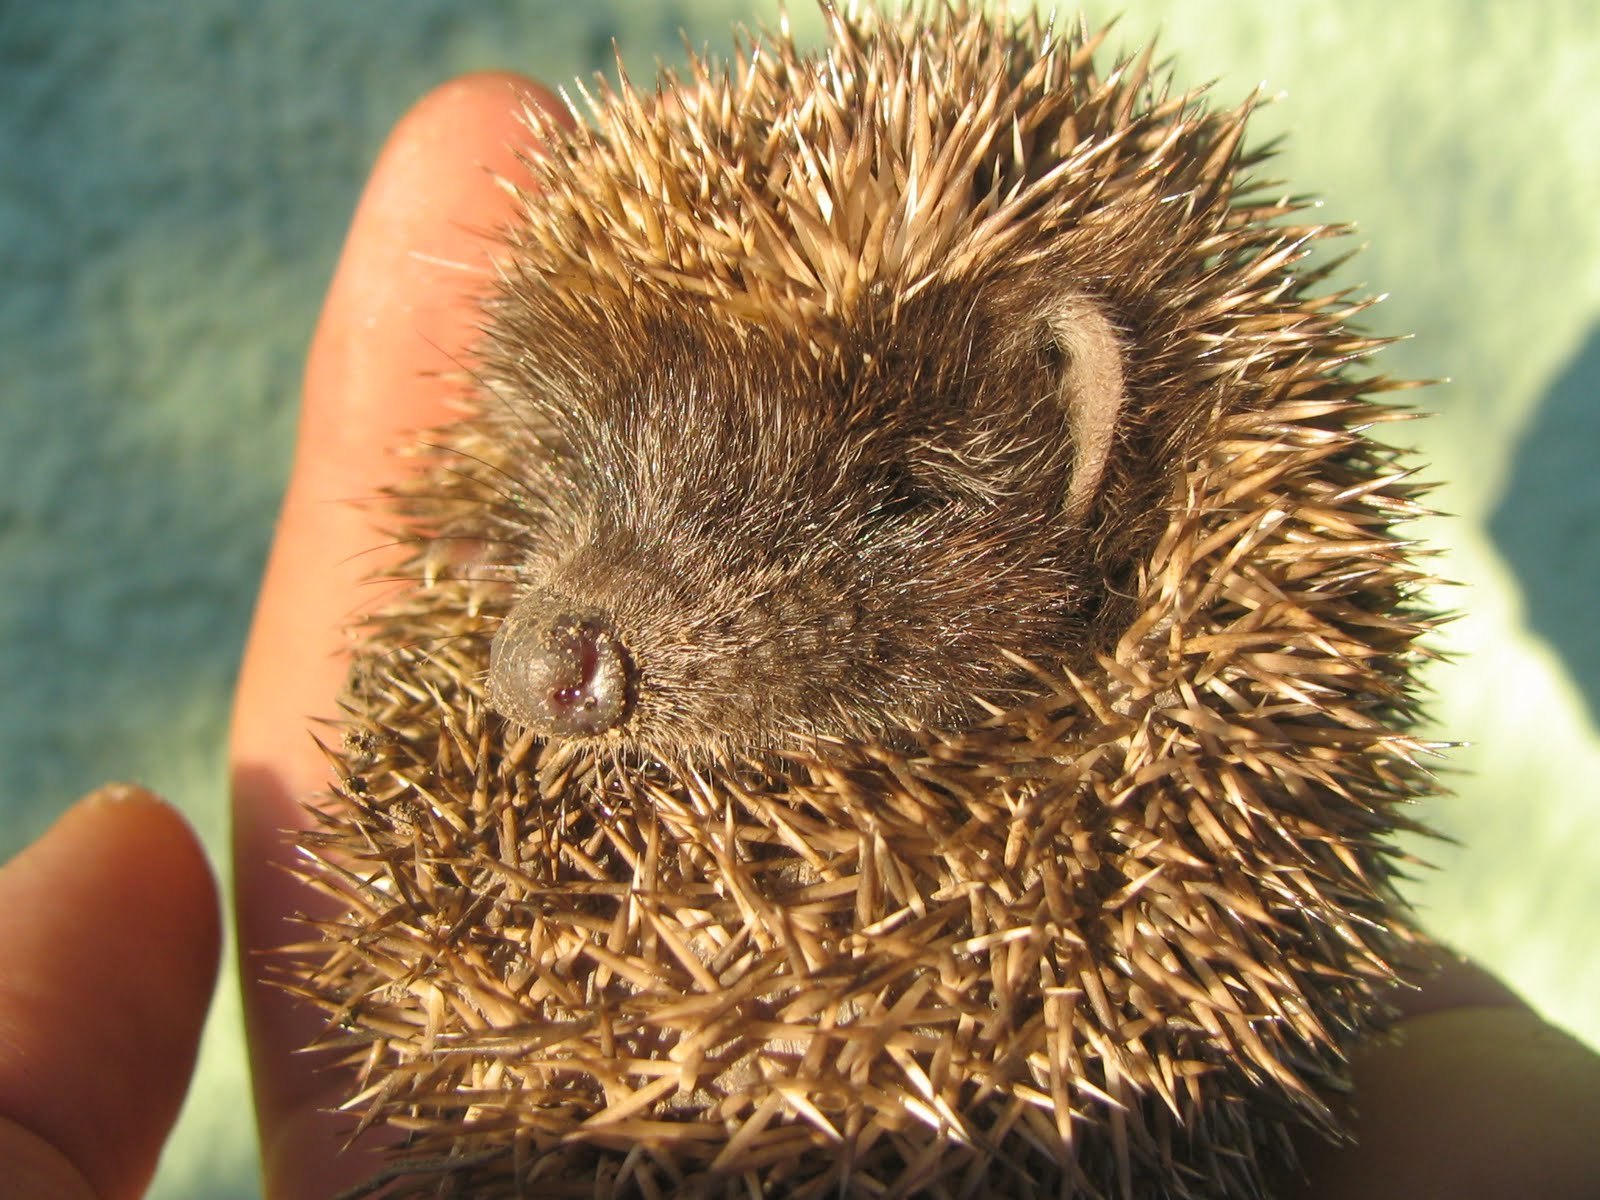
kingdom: Animalia
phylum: Chordata
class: Mammalia
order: Erinaceomorpha
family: Erinaceidae
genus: Erinaceus
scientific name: Erinaceus roumanicus
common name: Northern white-breasted hedgehog
